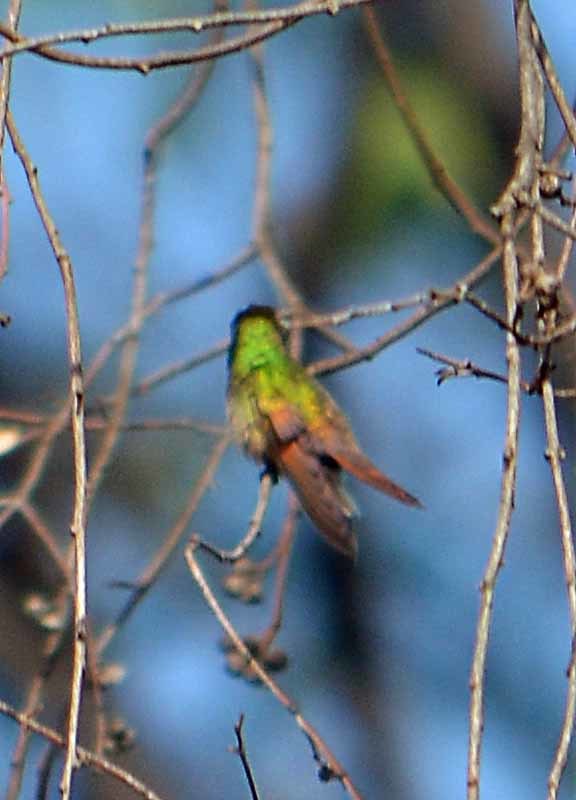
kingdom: Animalia
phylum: Chordata
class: Aves
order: Apodiformes
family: Trochilidae
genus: Saucerottia
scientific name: Saucerottia beryllina
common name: Berylline hummingbird
